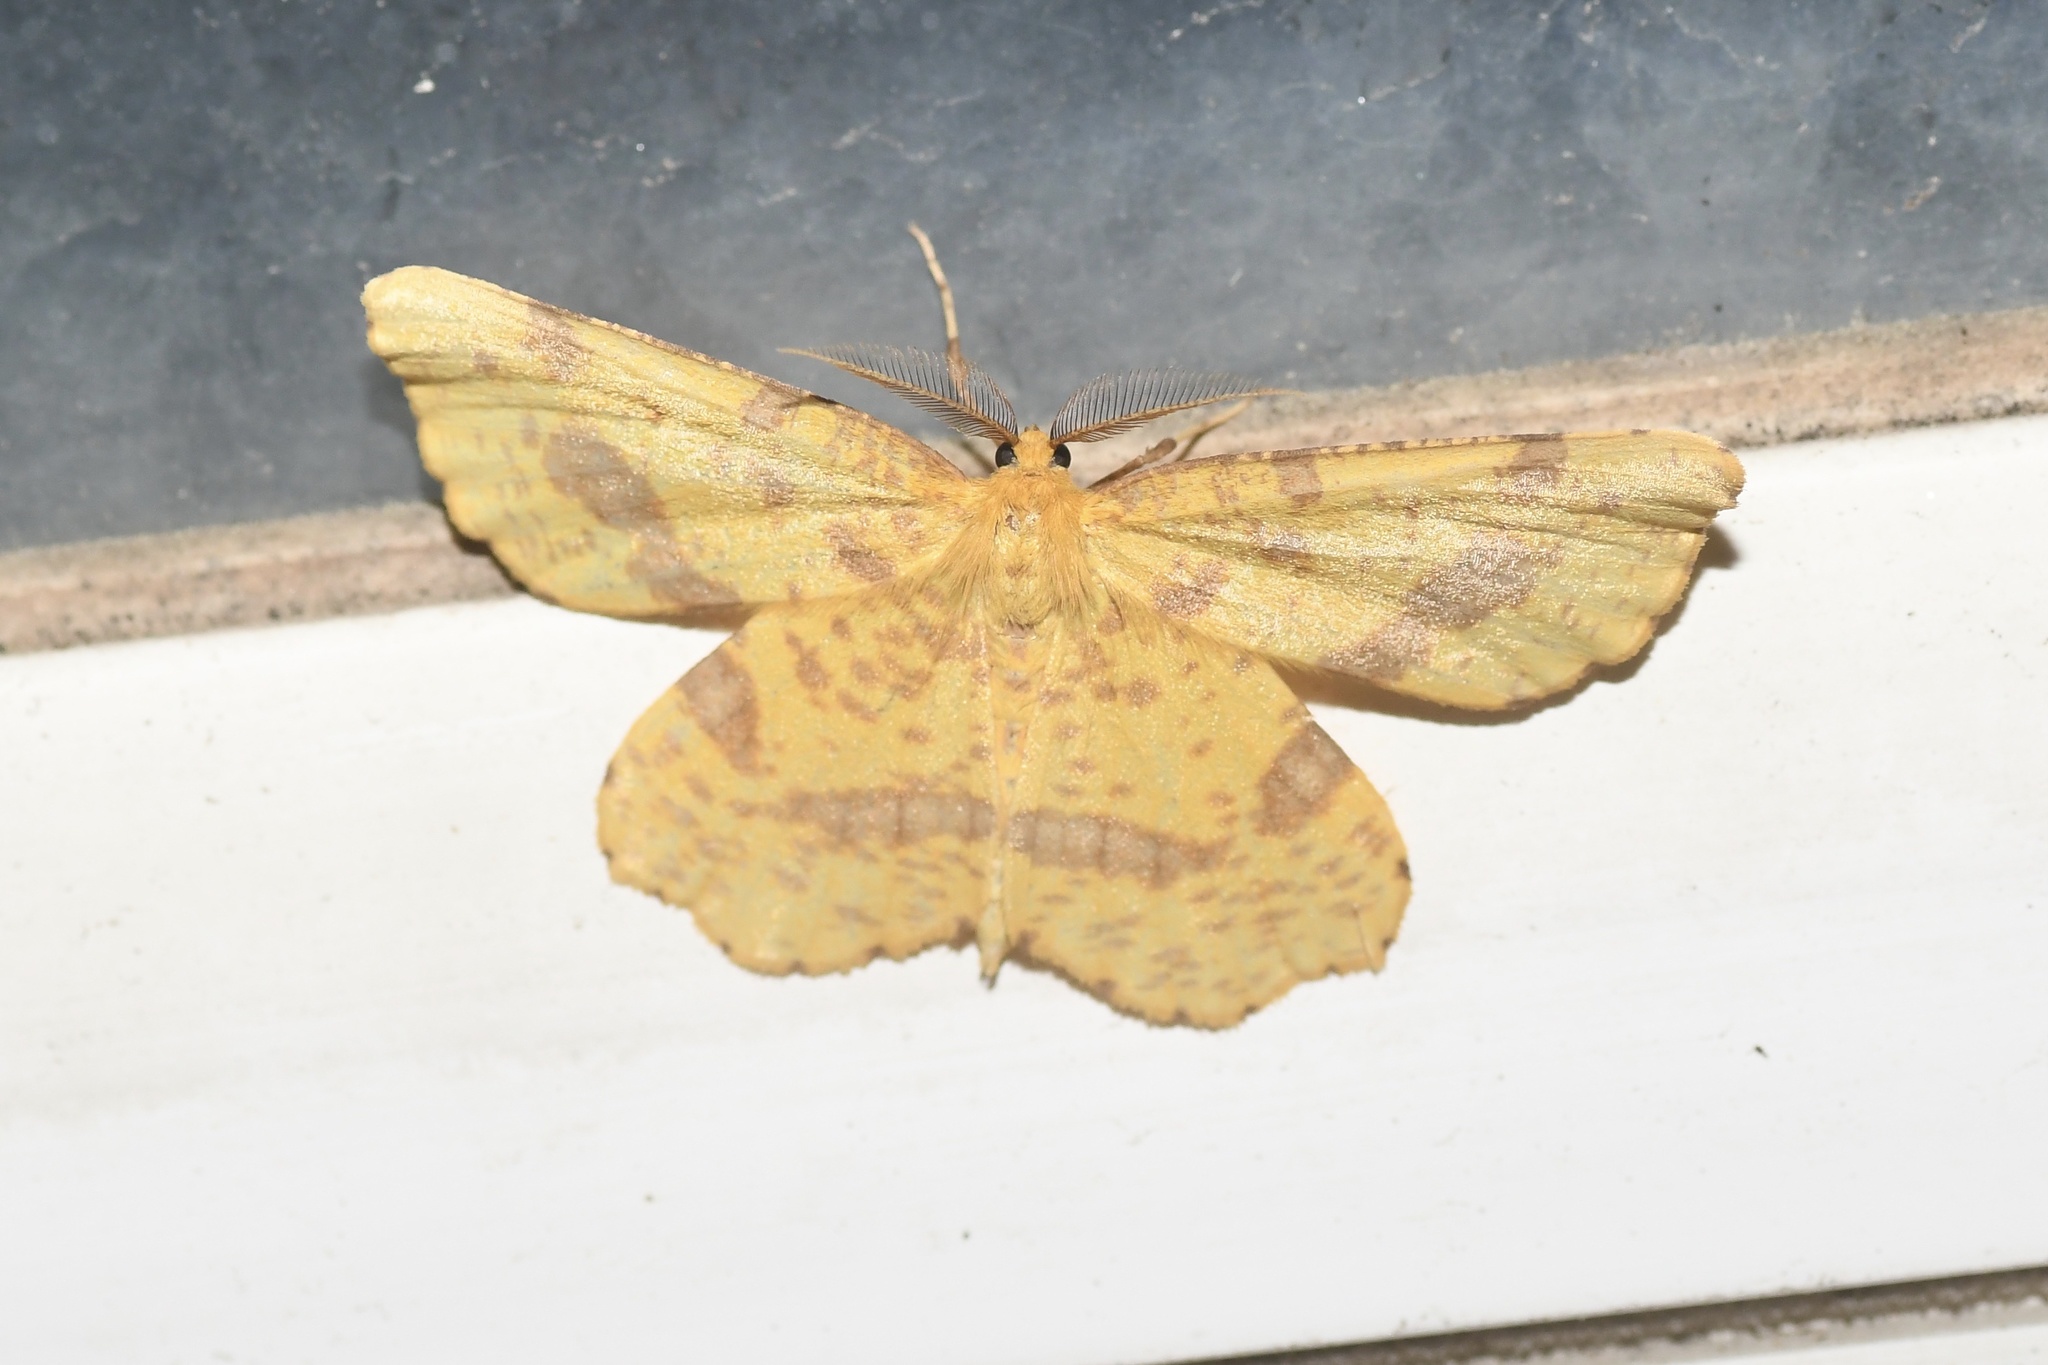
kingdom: Animalia
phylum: Arthropoda
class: Insecta
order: Lepidoptera
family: Geometridae
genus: Xanthotype
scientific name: Xanthotype
